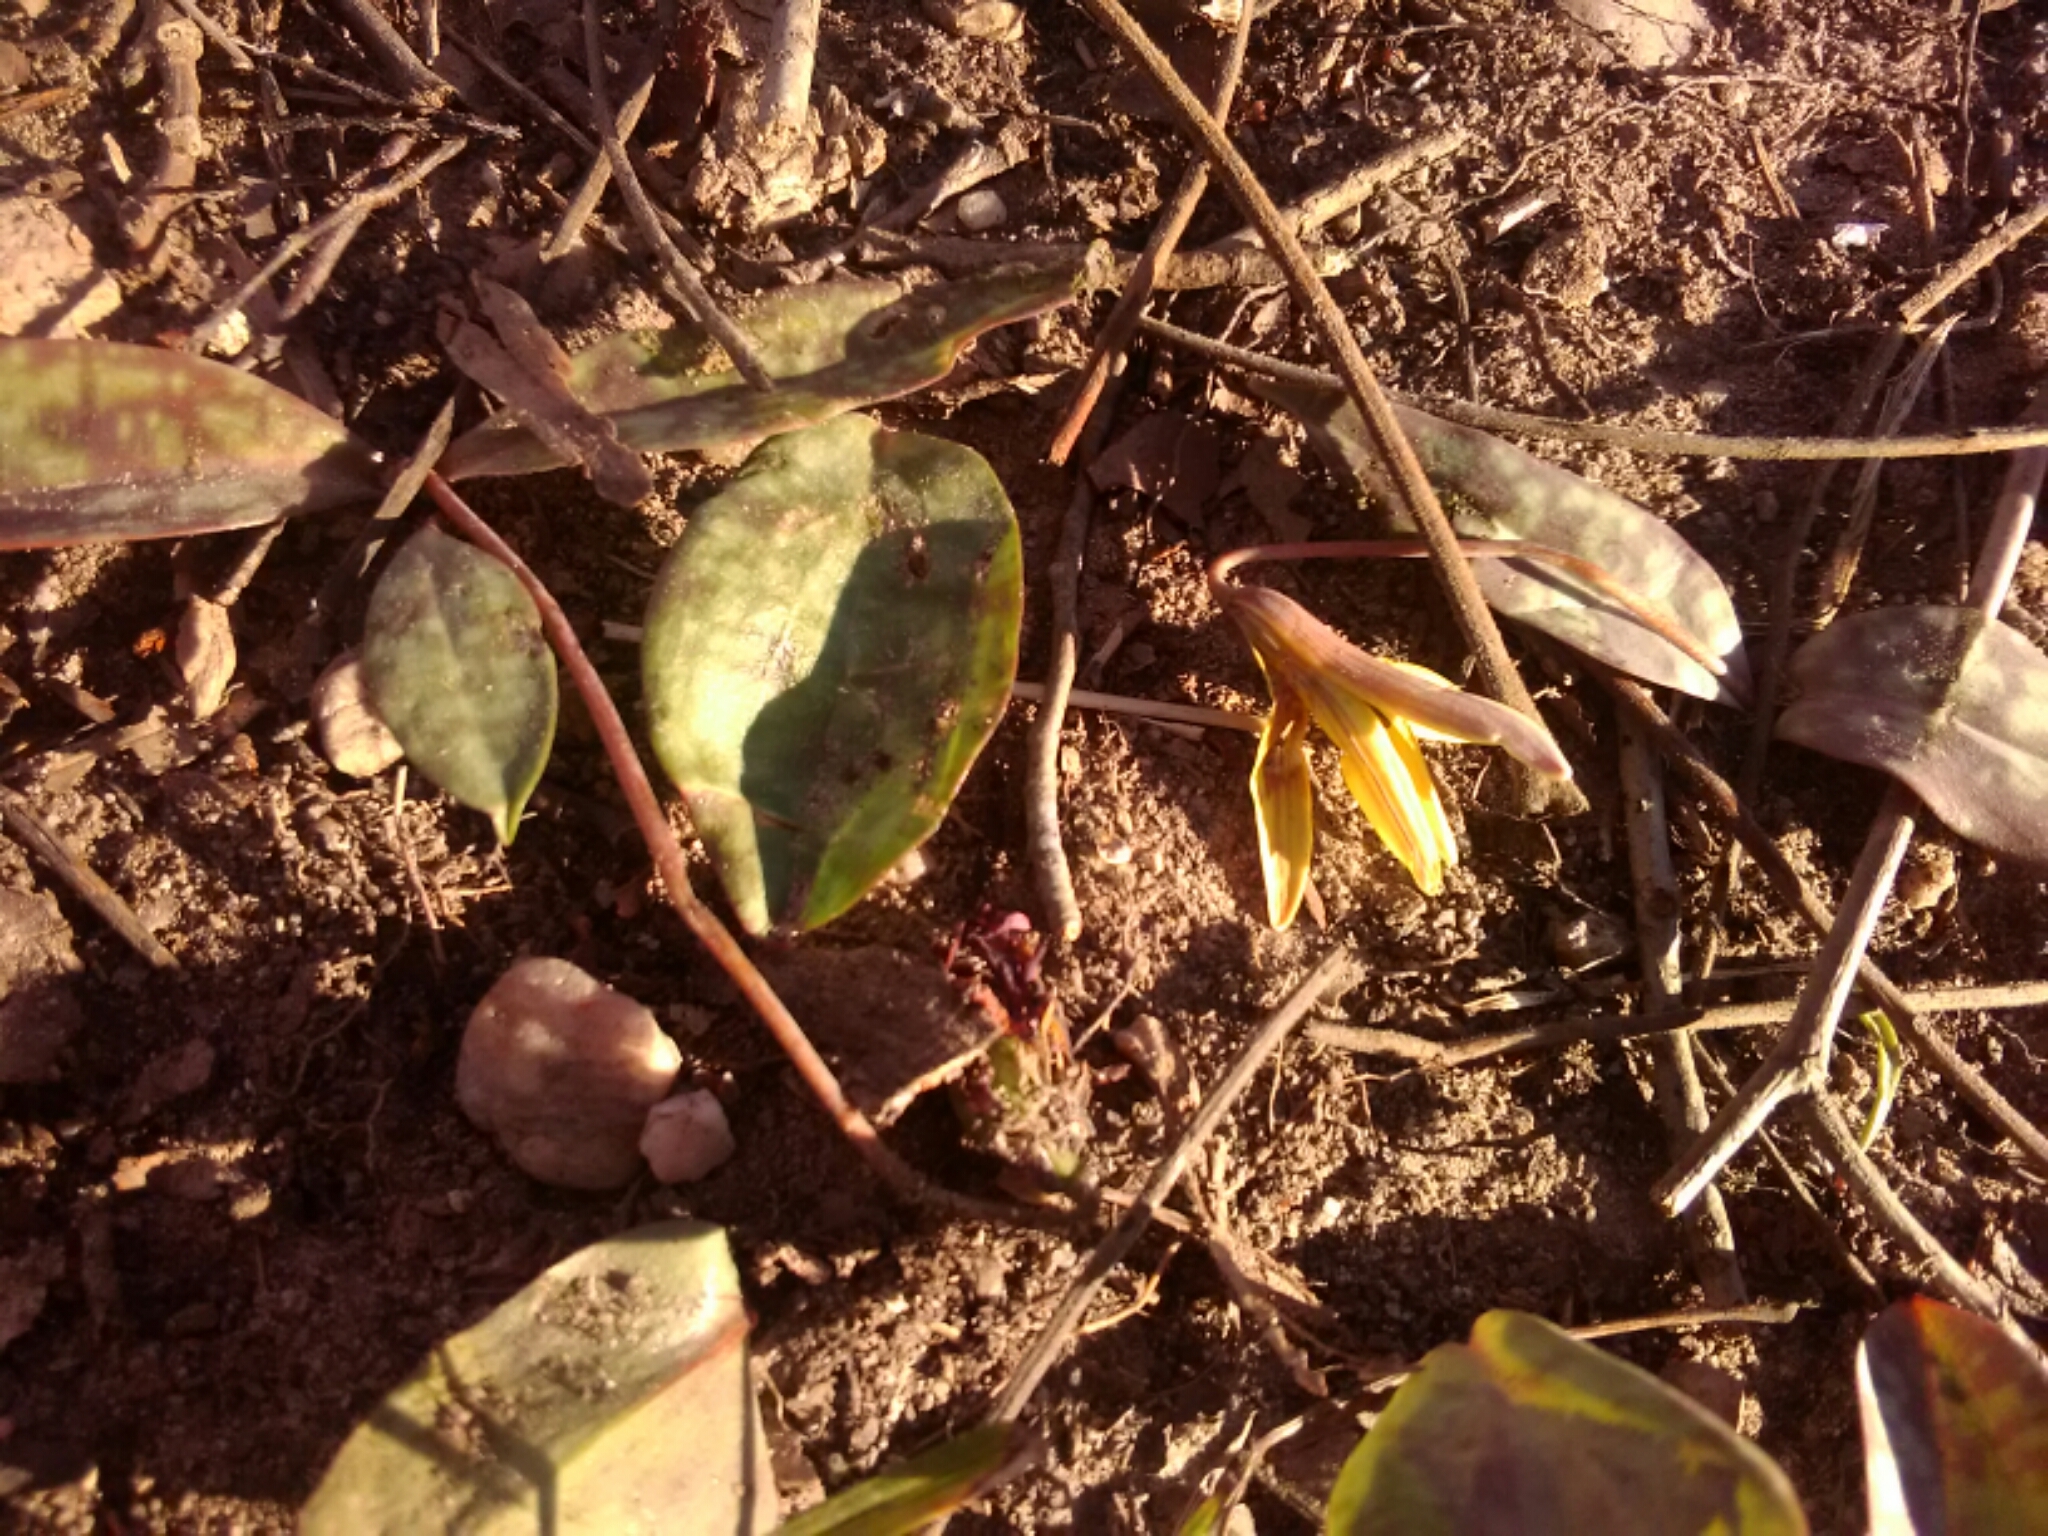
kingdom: Plantae
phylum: Tracheophyta
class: Liliopsida
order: Liliales
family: Liliaceae
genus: Erythronium
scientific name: Erythronium
